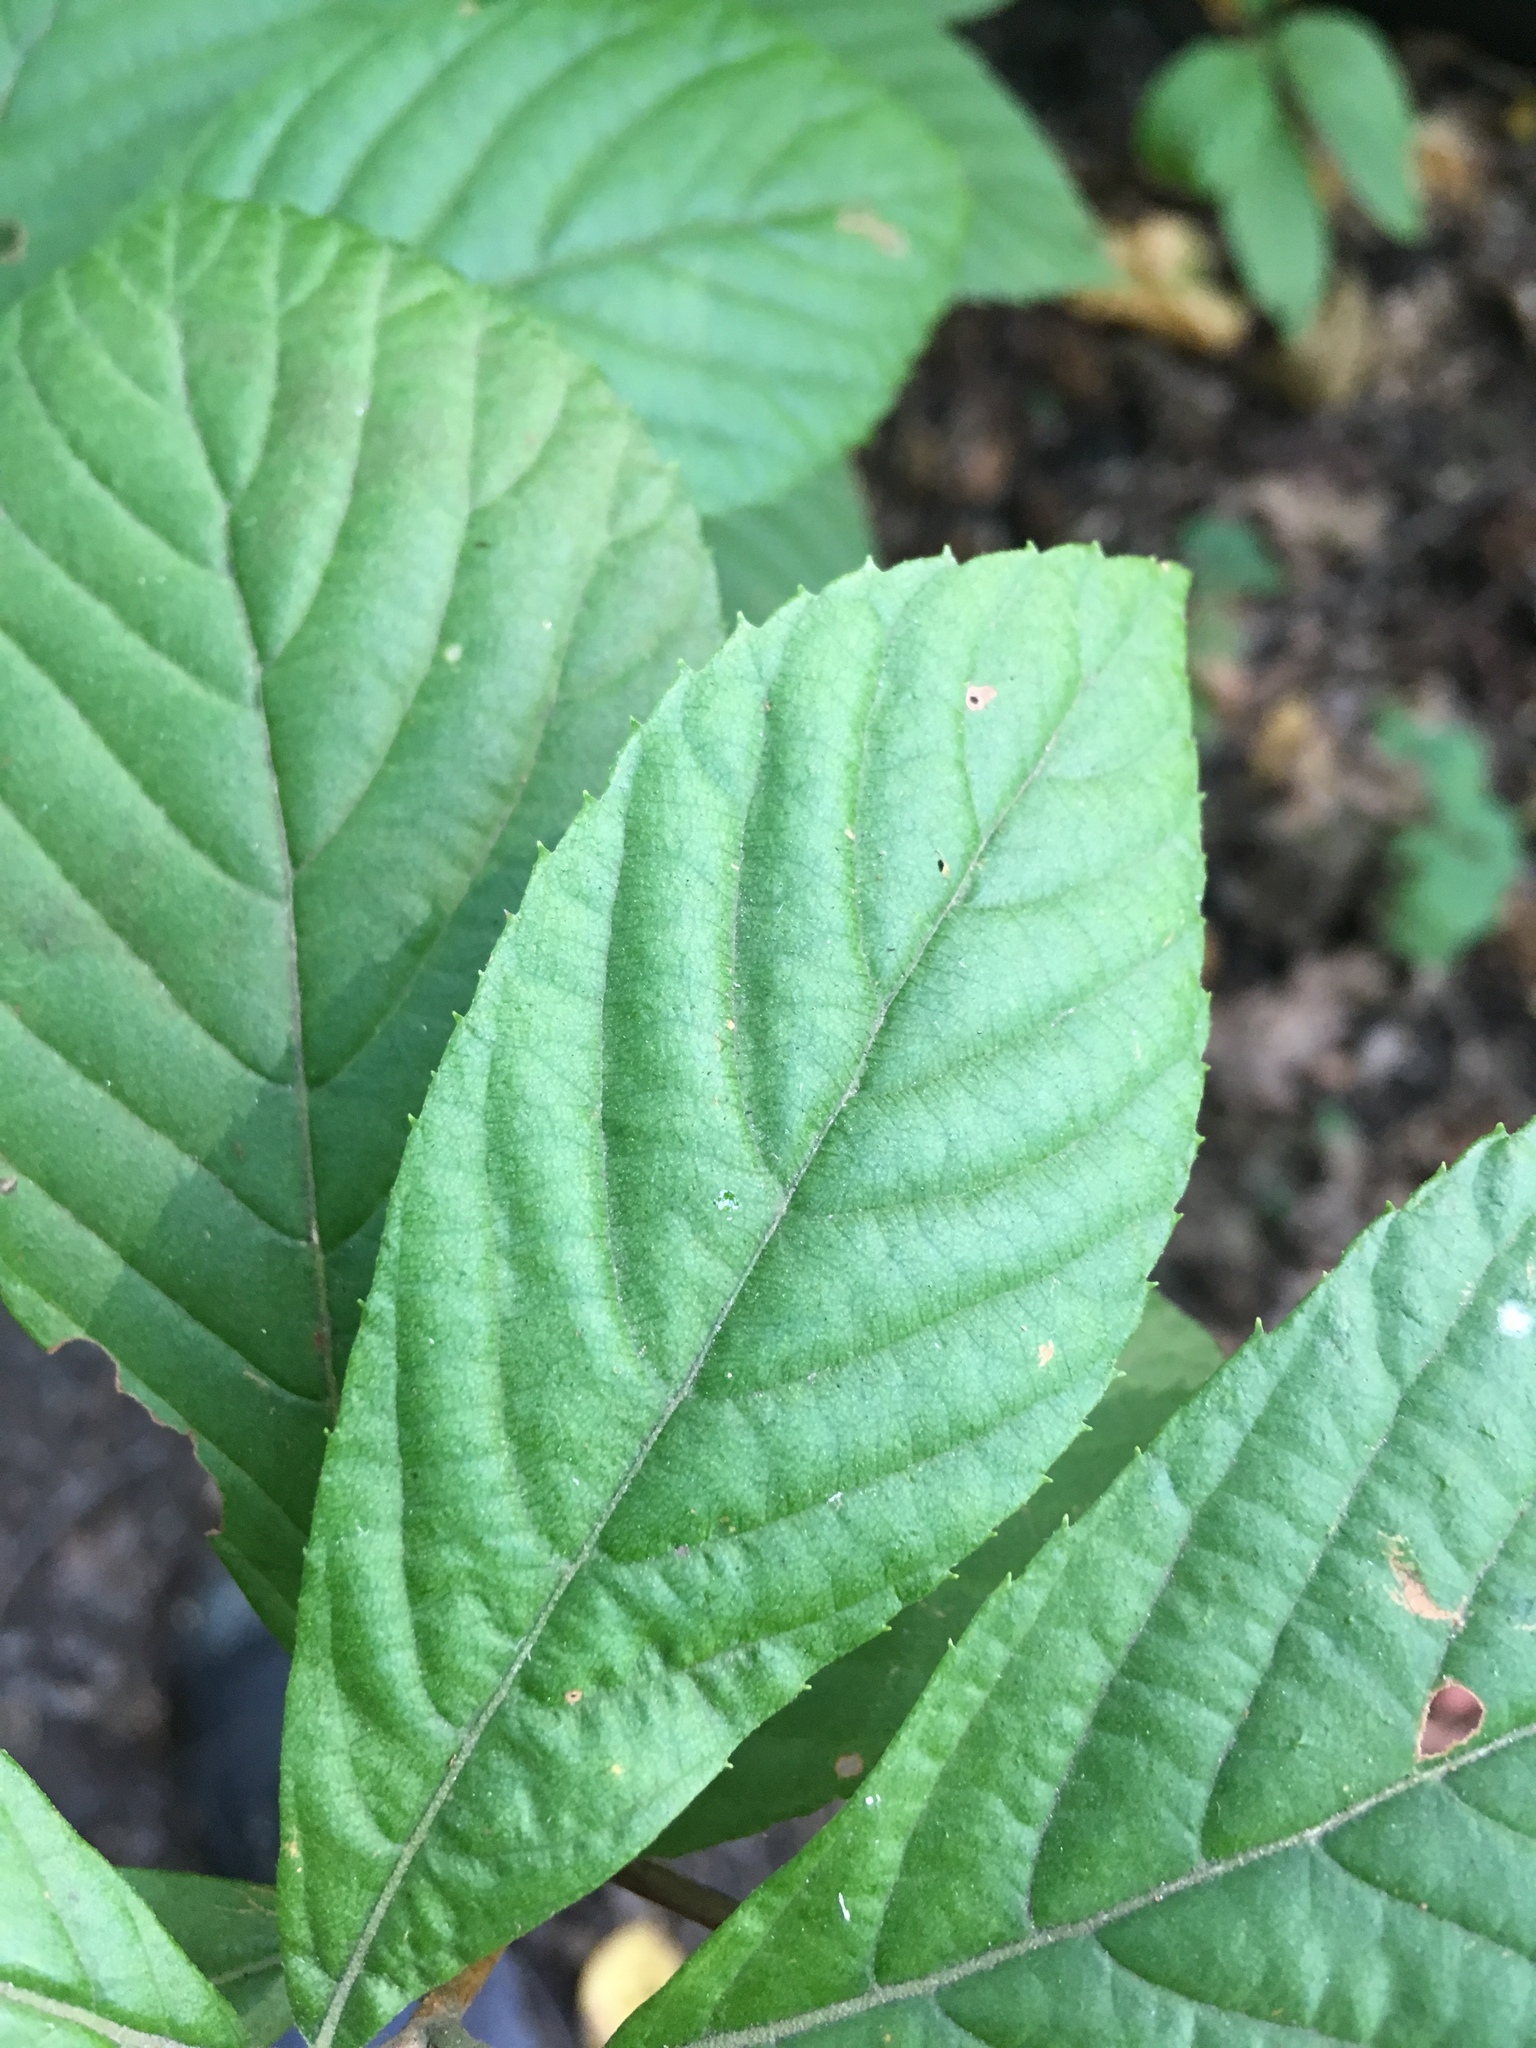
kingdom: Plantae
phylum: Tracheophyta
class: Magnoliopsida
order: Ericales
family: Clethraceae
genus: Clethra
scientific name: Clethra alnifolia
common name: Sweet pepperbush
